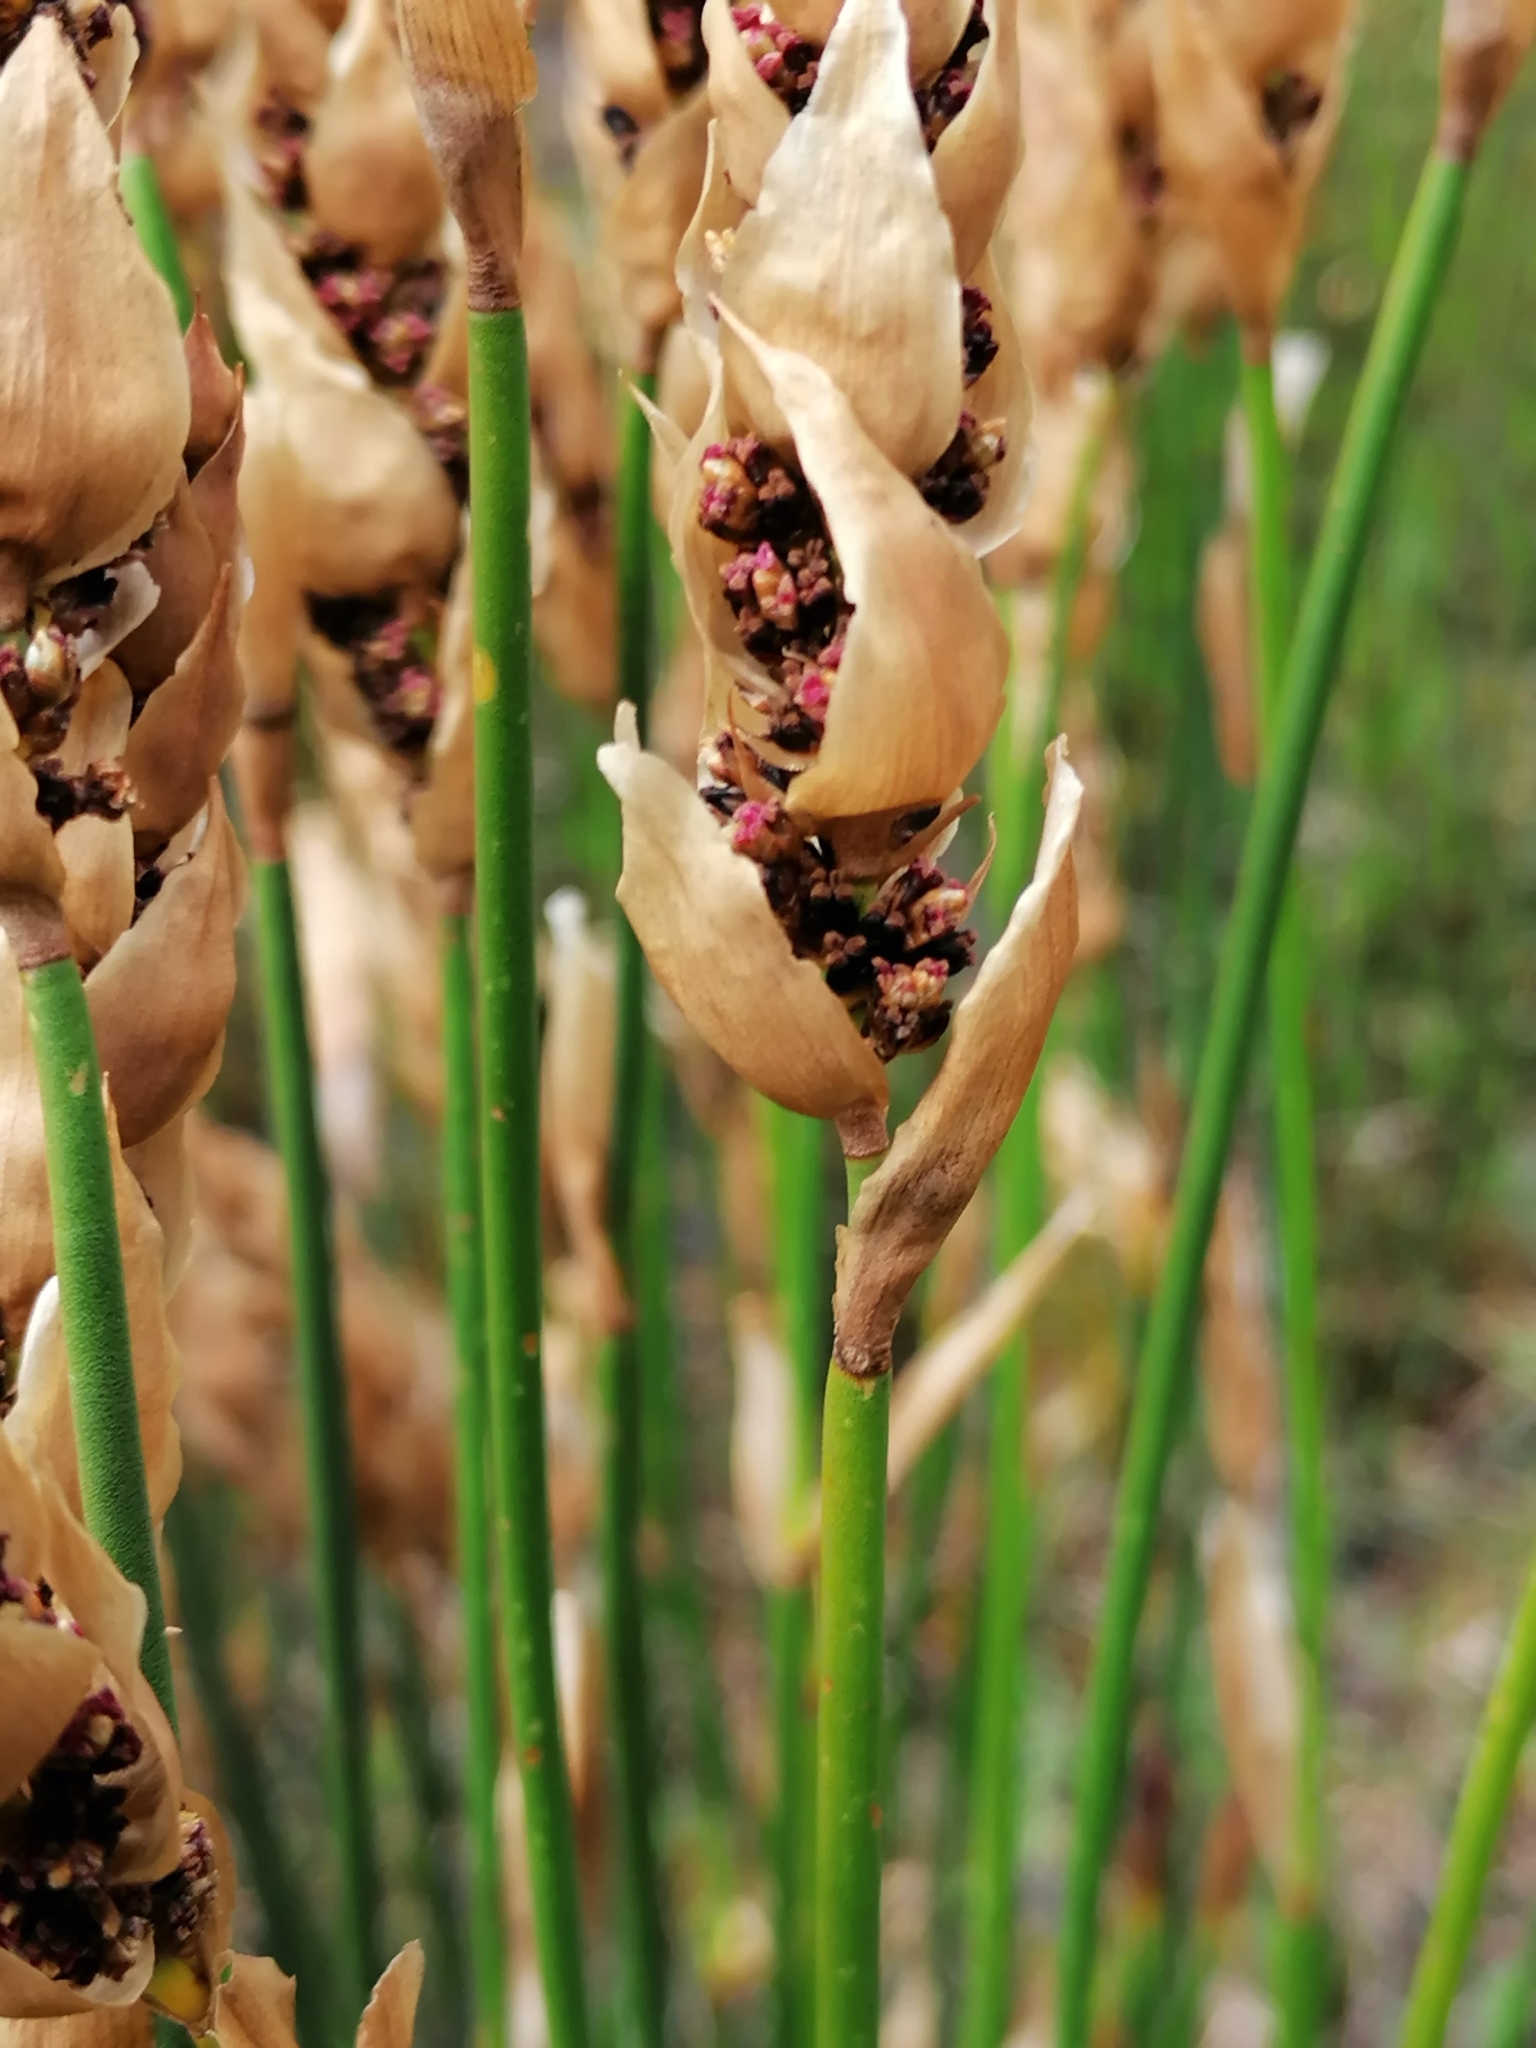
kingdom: Plantae
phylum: Tracheophyta
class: Liliopsida
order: Poales
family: Restionaceae
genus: Elegia
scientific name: Elegia fistulosa
